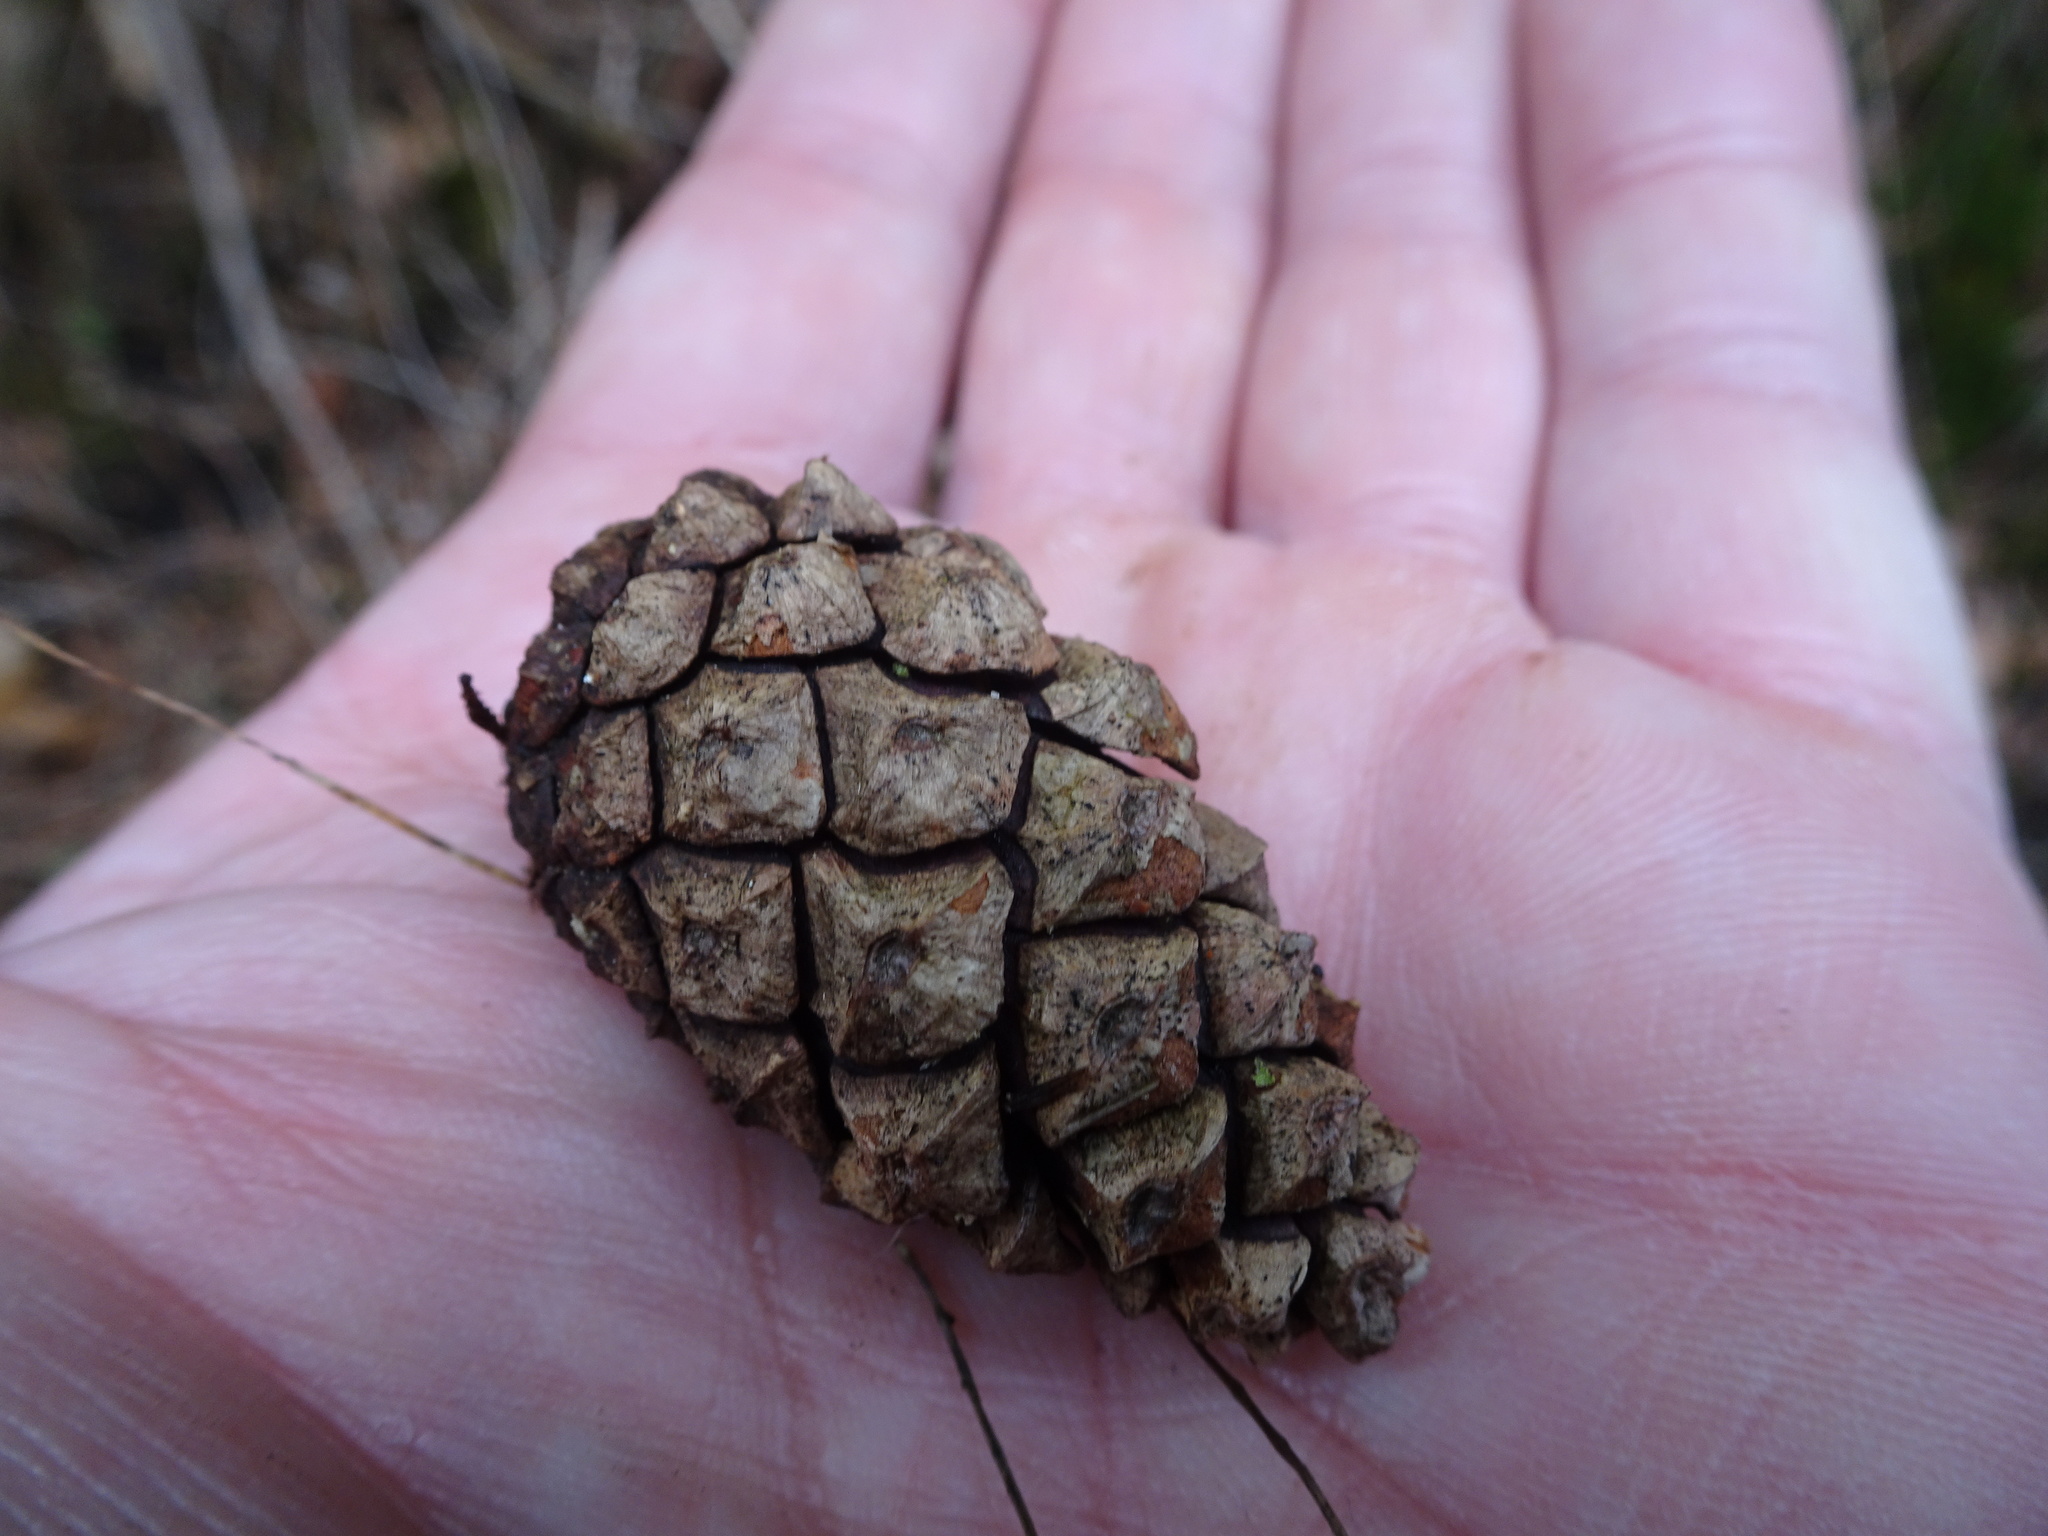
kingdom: Plantae
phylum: Tracheophyta
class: Pinopsida
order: Pinales
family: Pinaceae
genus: Pinus
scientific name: Pinus sylvestris
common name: Scots pine
